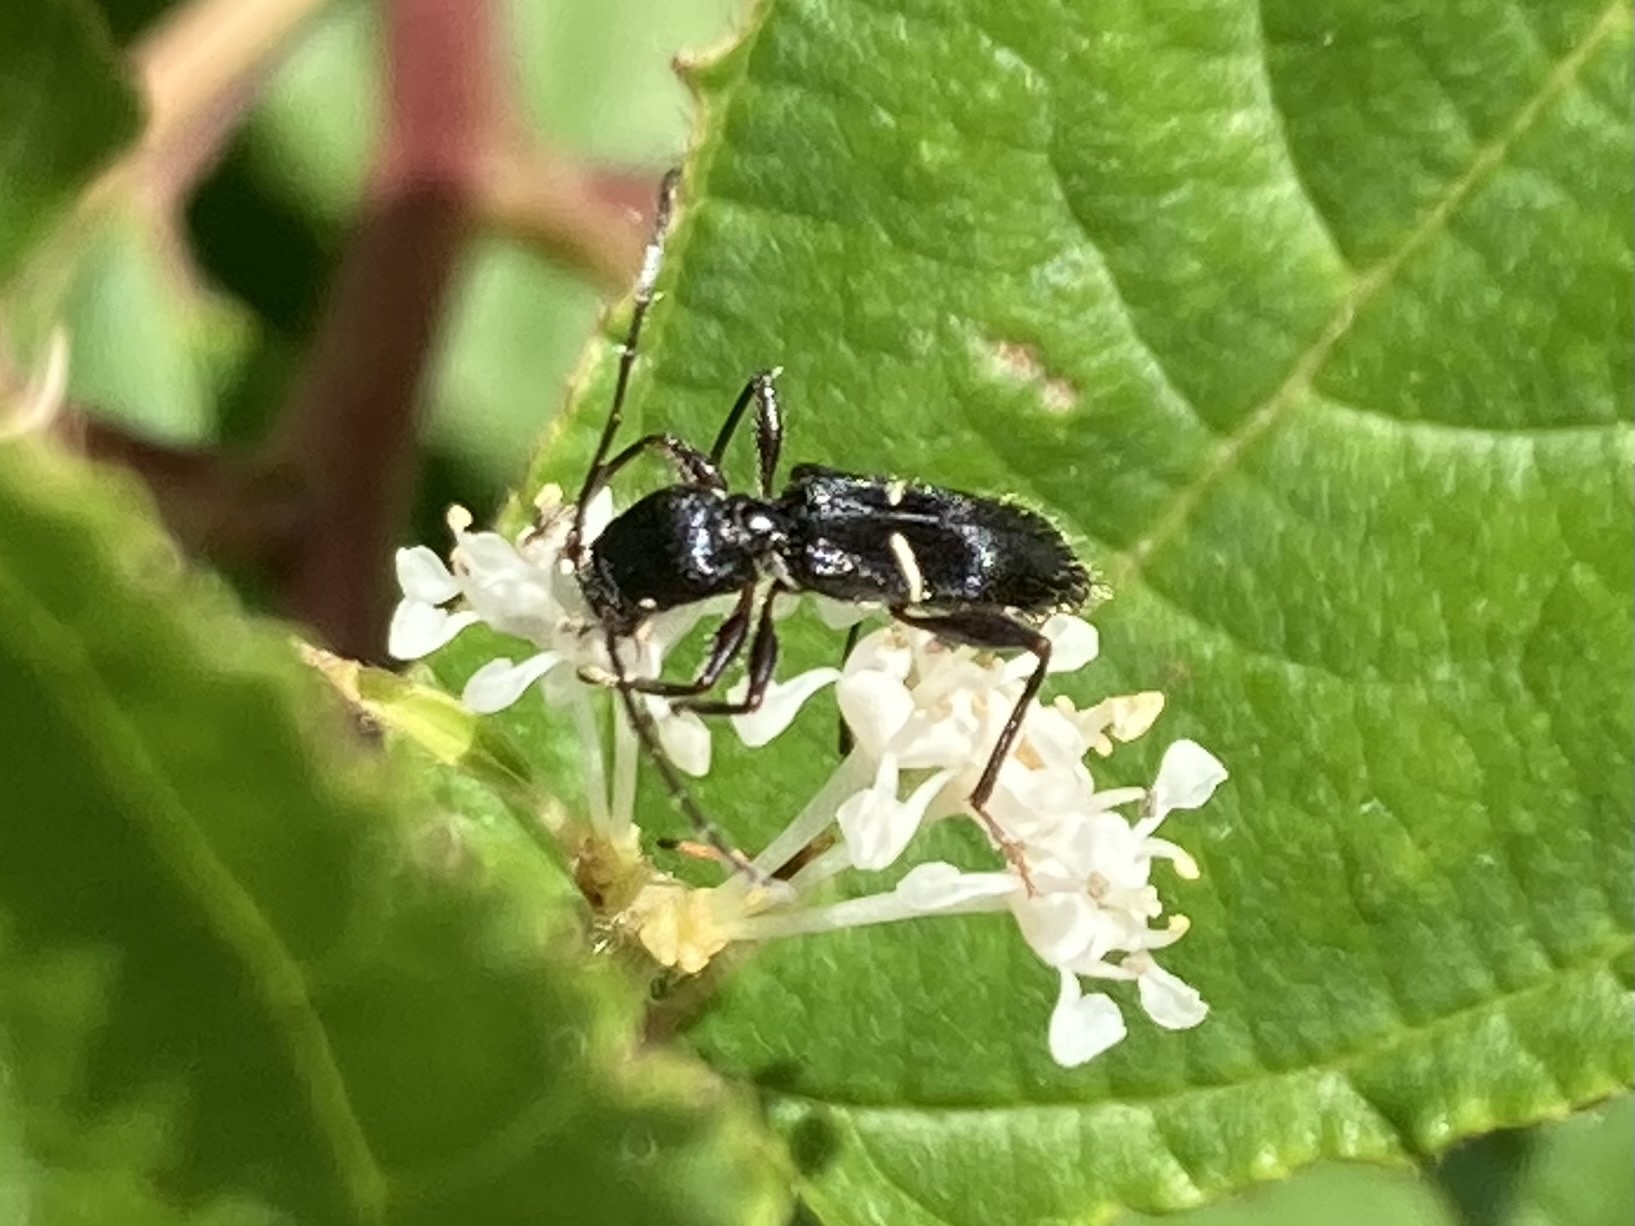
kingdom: Animalia
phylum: Arthropoda
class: Insecta
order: Coleoptera
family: Cerambycidae
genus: Euderces
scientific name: Euderces picipes
